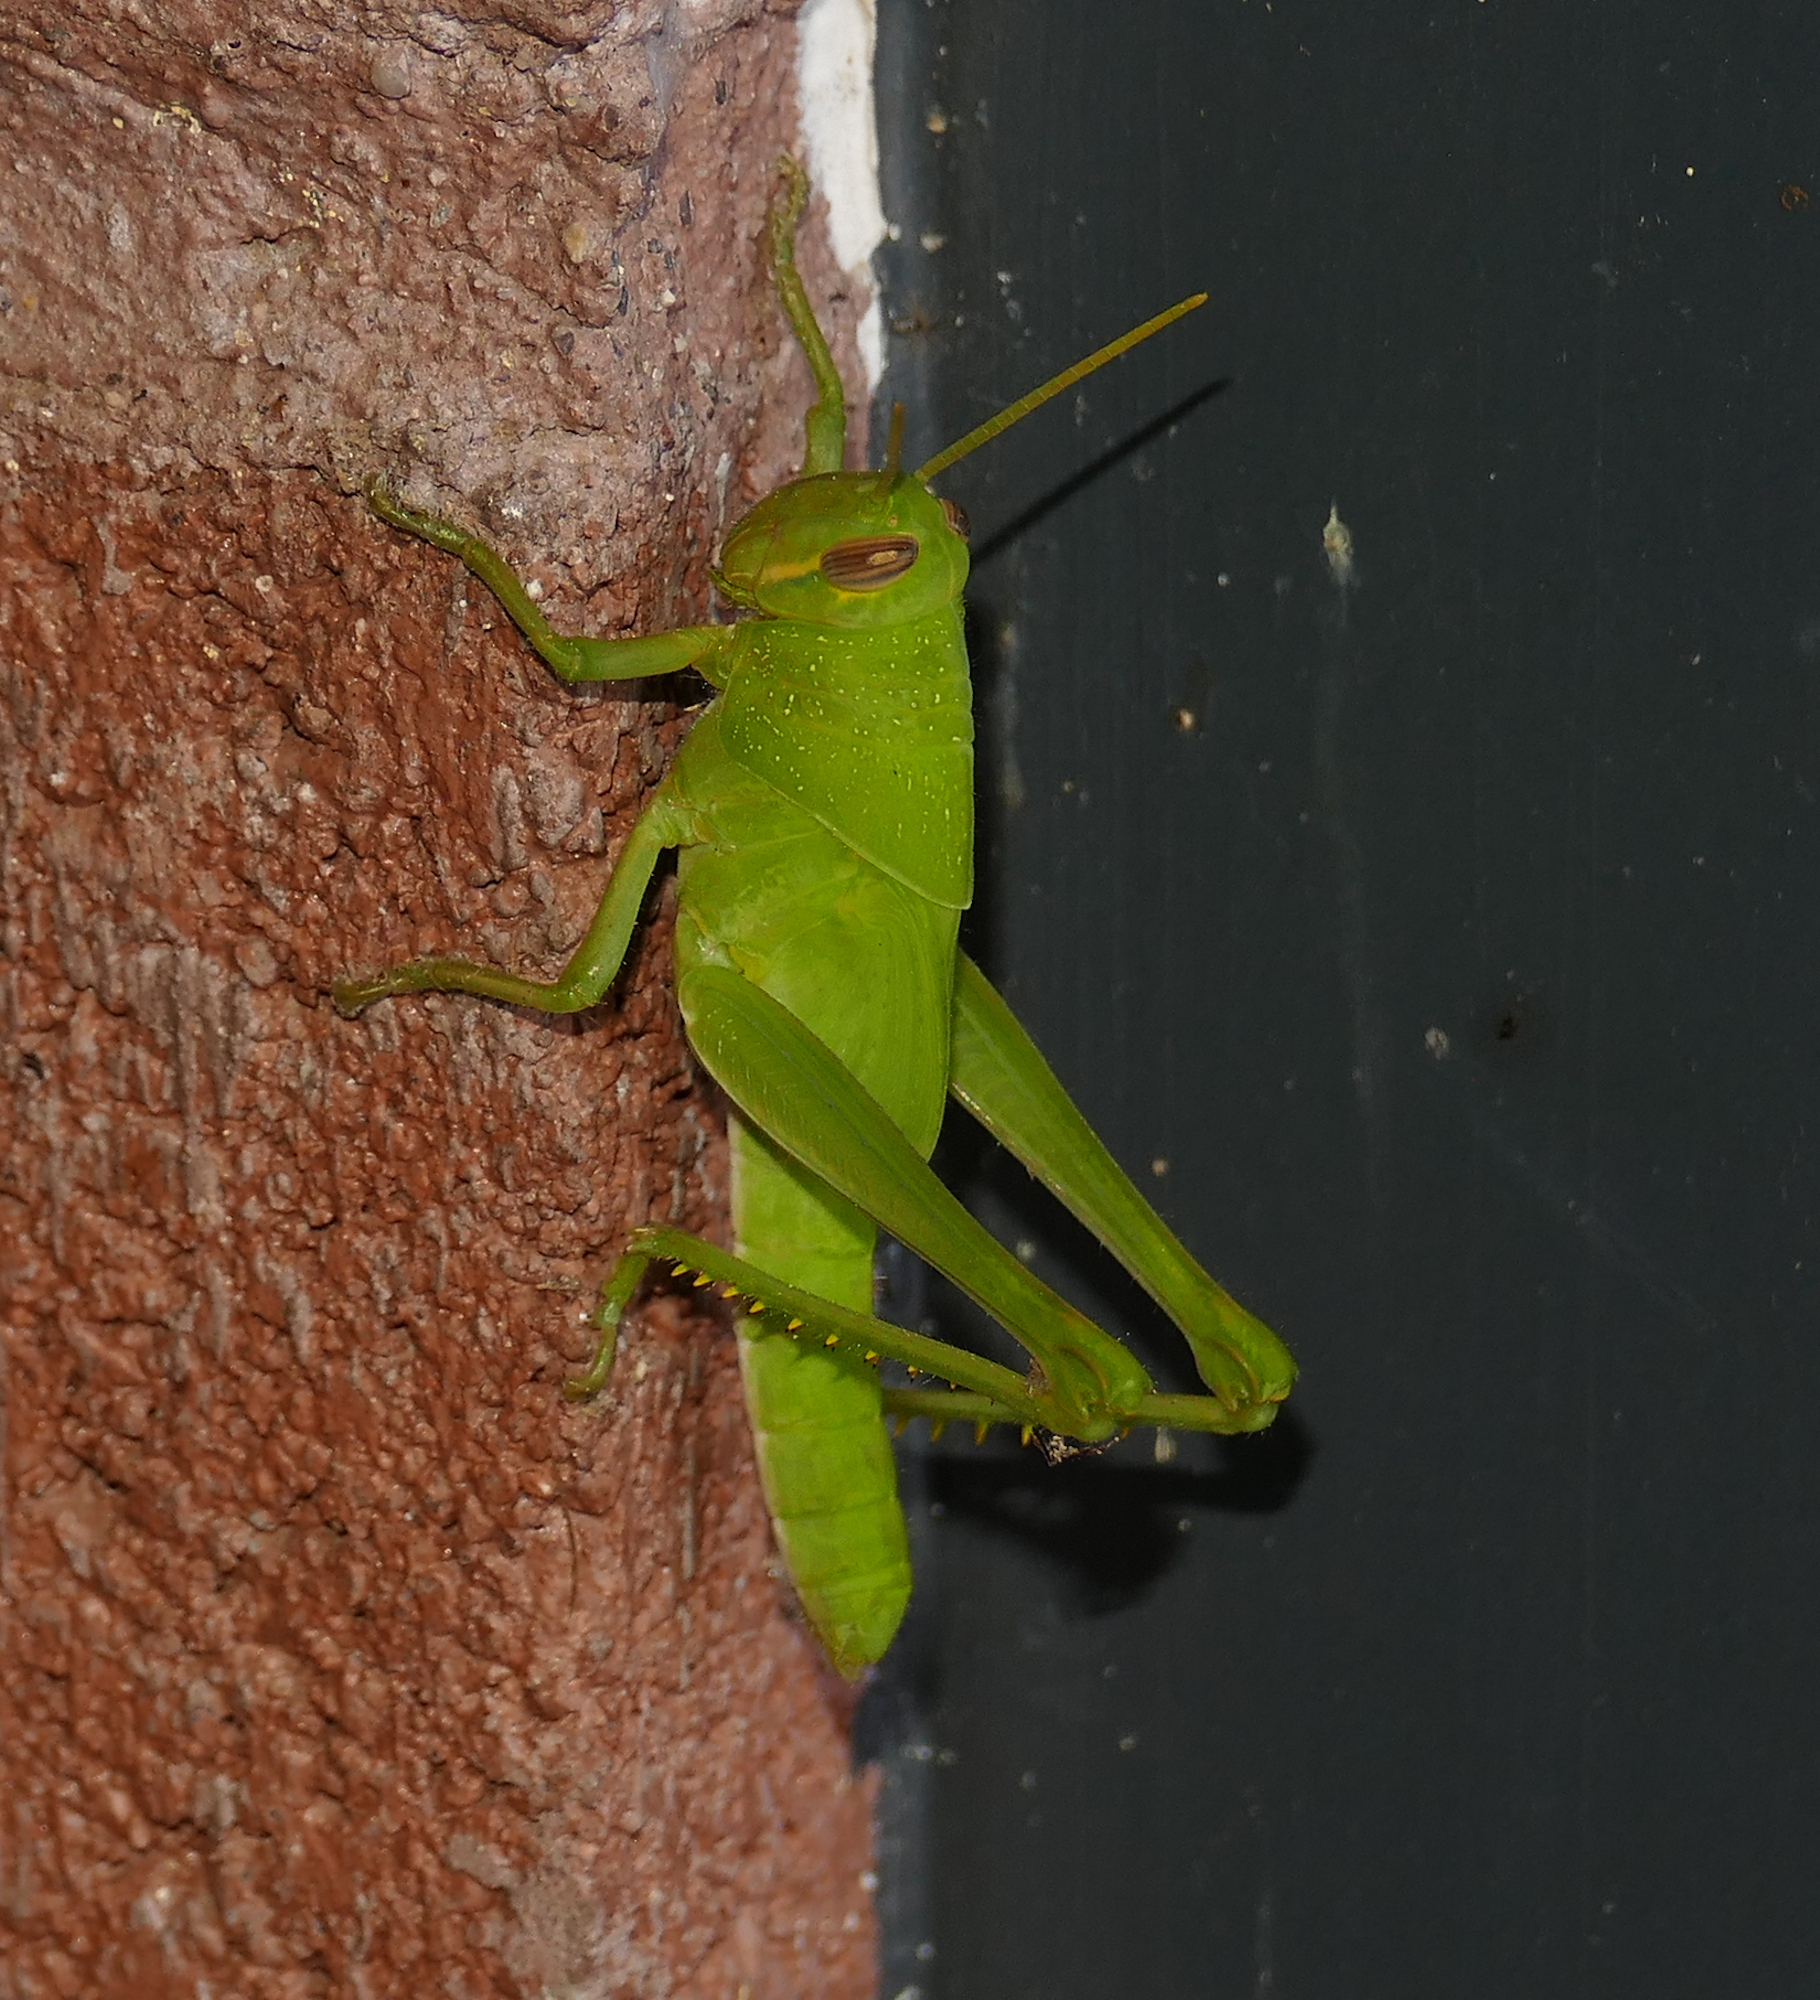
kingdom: Animalia
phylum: Arthropoda
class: Insecta
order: Orthoptera
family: Acrididae
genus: Schistocerca
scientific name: Schistocerca nitens
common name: Vagrant grasshopper
